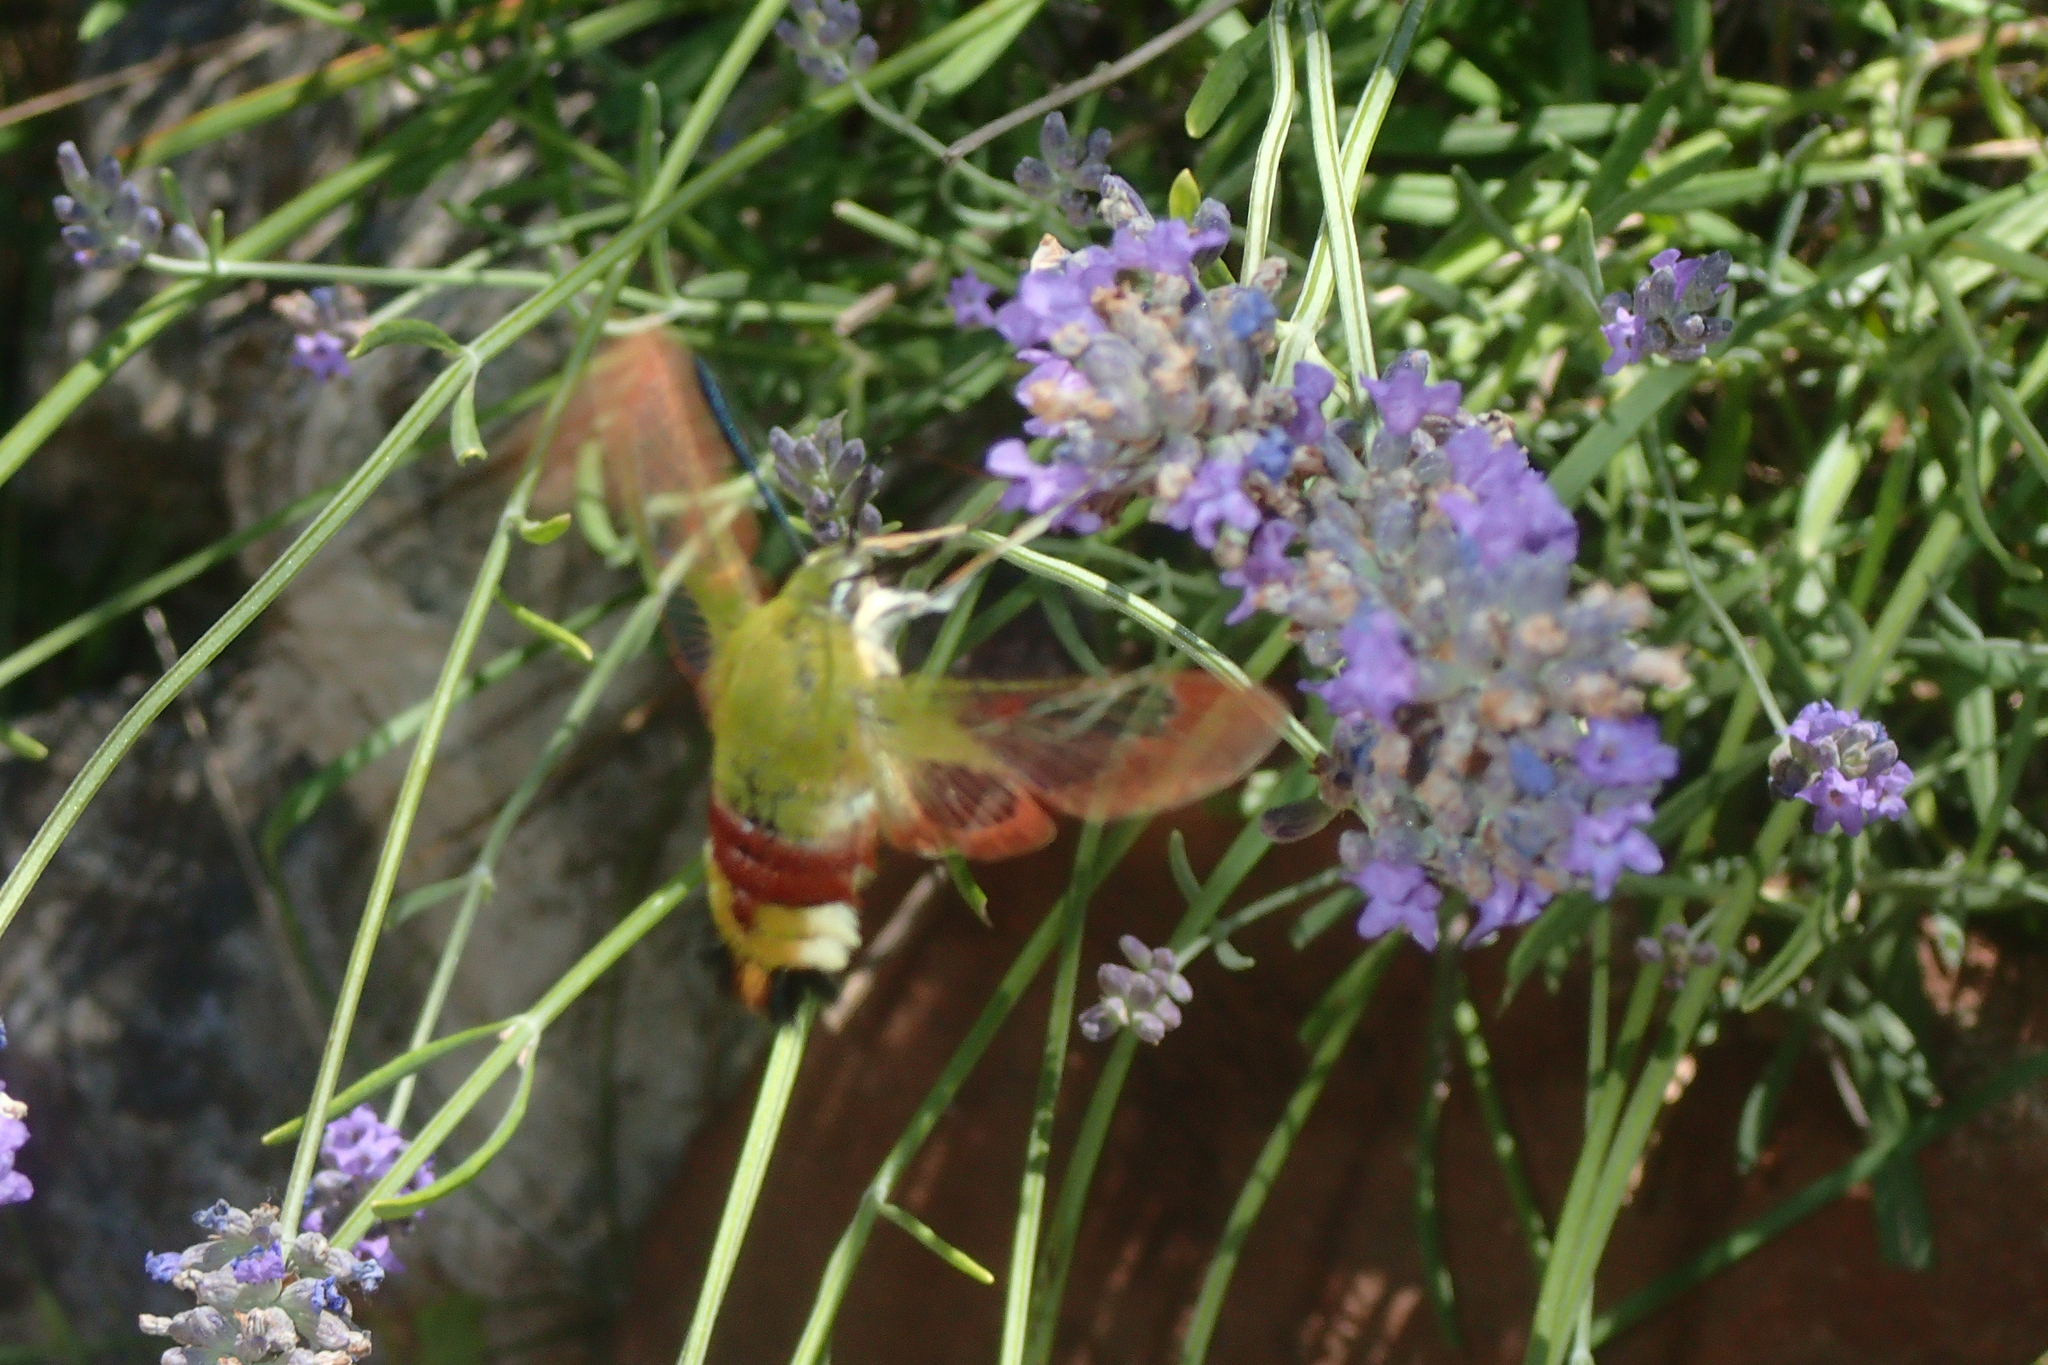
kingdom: Animalia
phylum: Arthropoda
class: Insecta
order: Lepidoptera
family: Sphingidae
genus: Hemaris
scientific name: Hemaris fuciformis
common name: Broad-bordered bee hawk-moth
